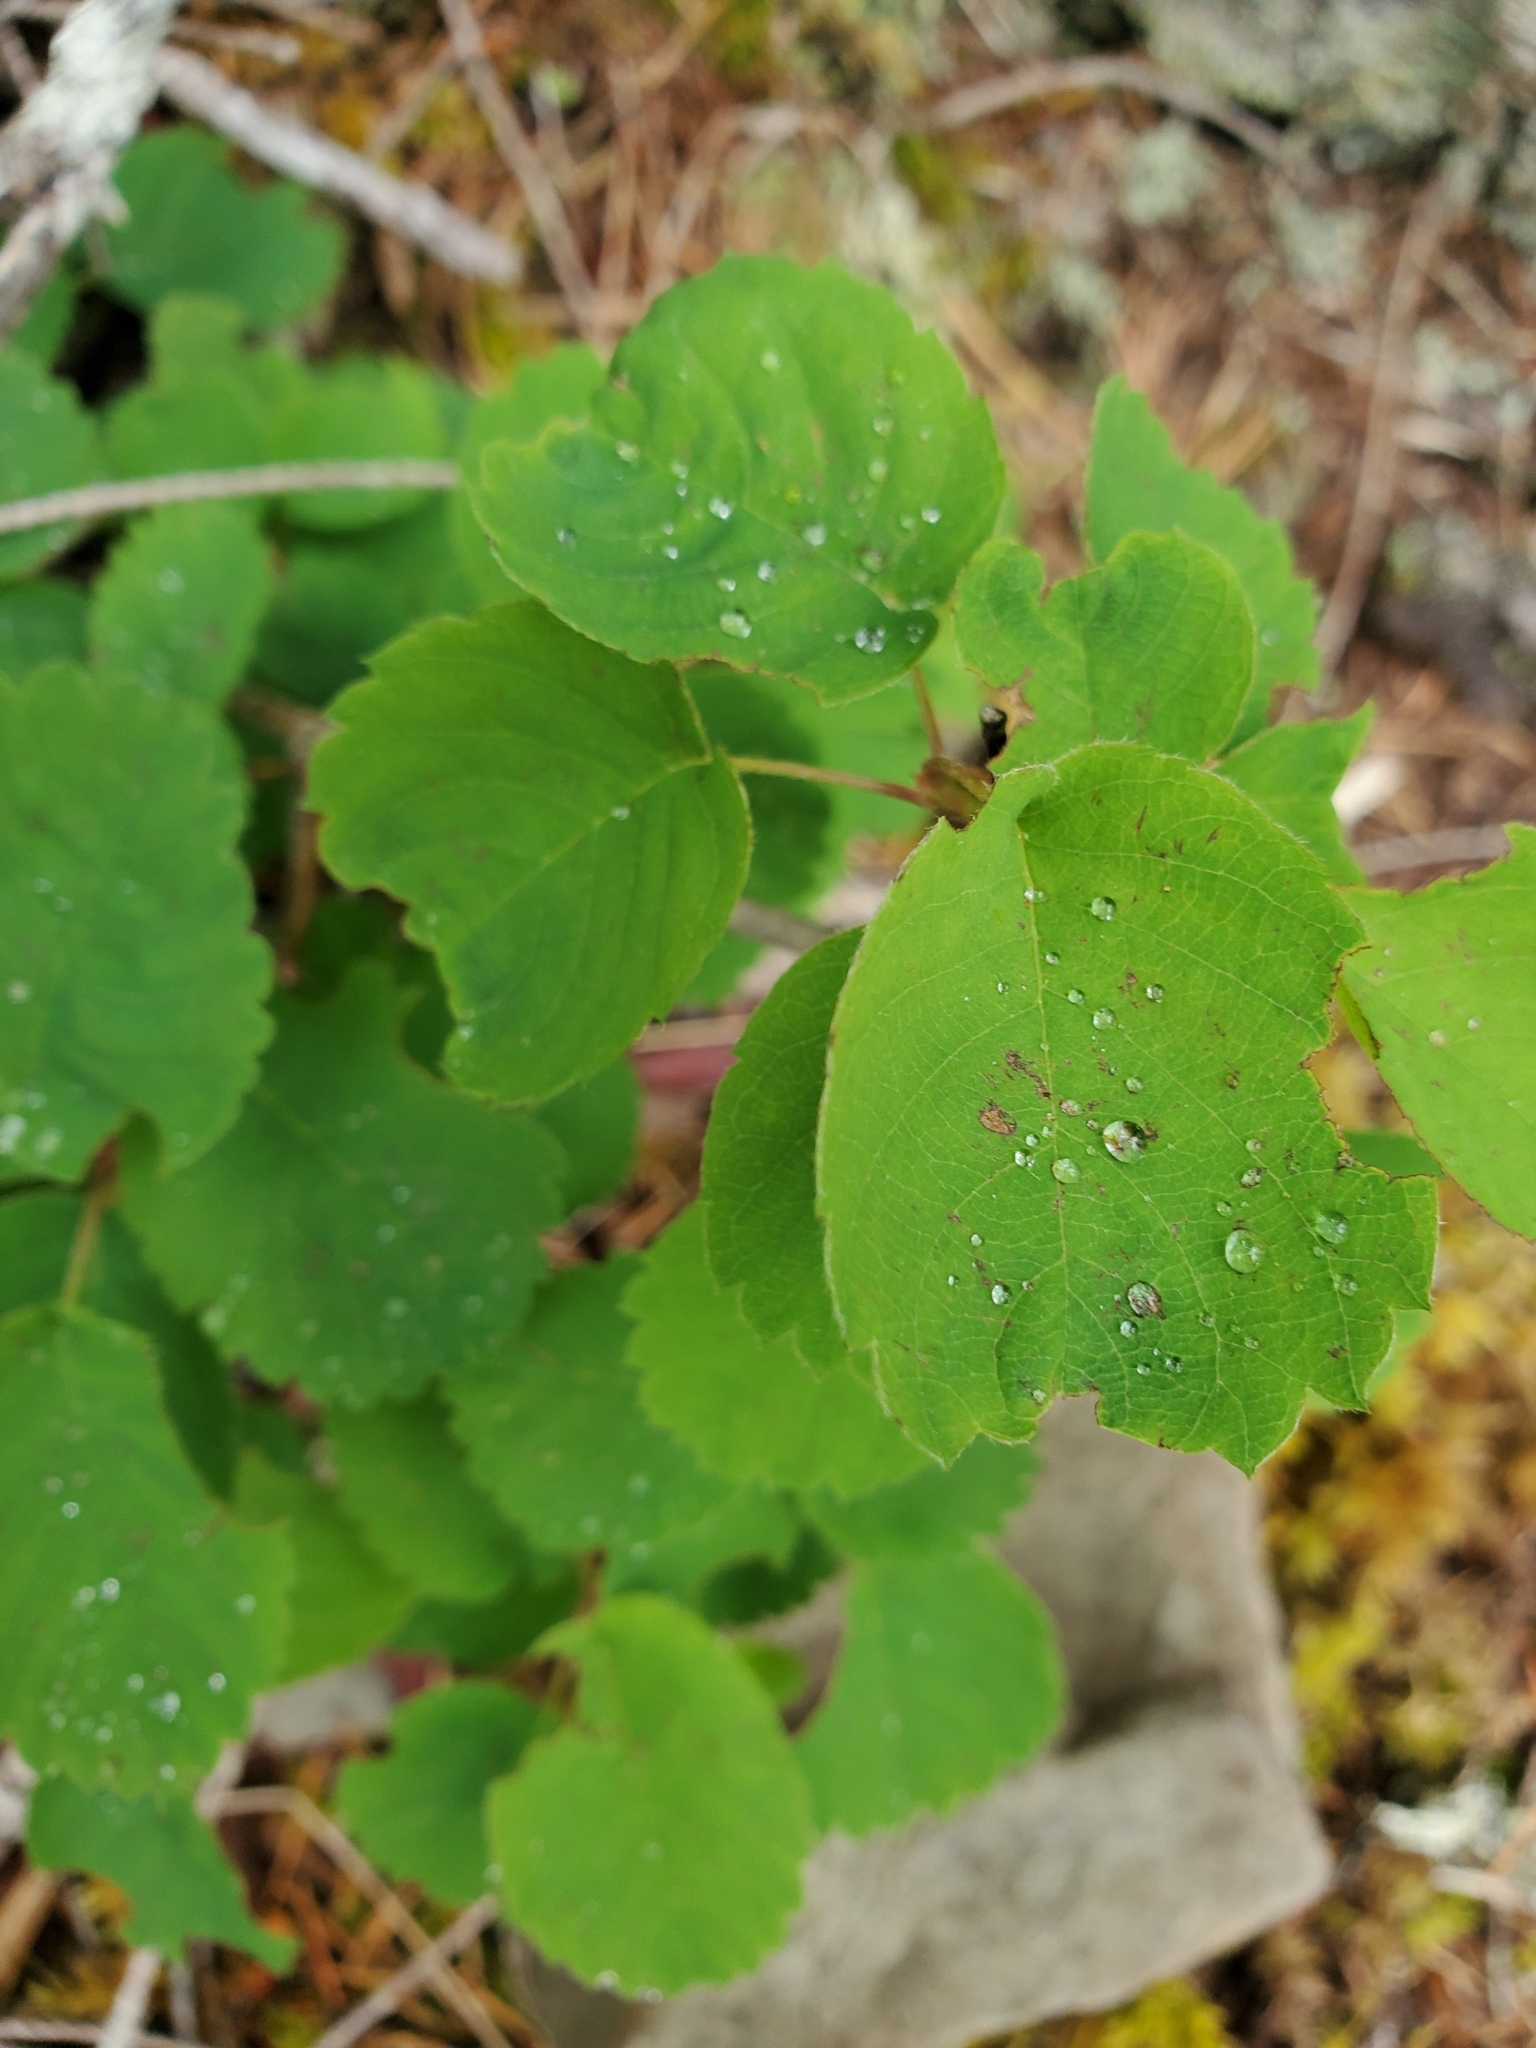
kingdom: Plantae
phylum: Tracheophyta
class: Magnoliopsida
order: Rosales
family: Rosaceae
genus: Amelanchier
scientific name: Amelanchier alnifolia
